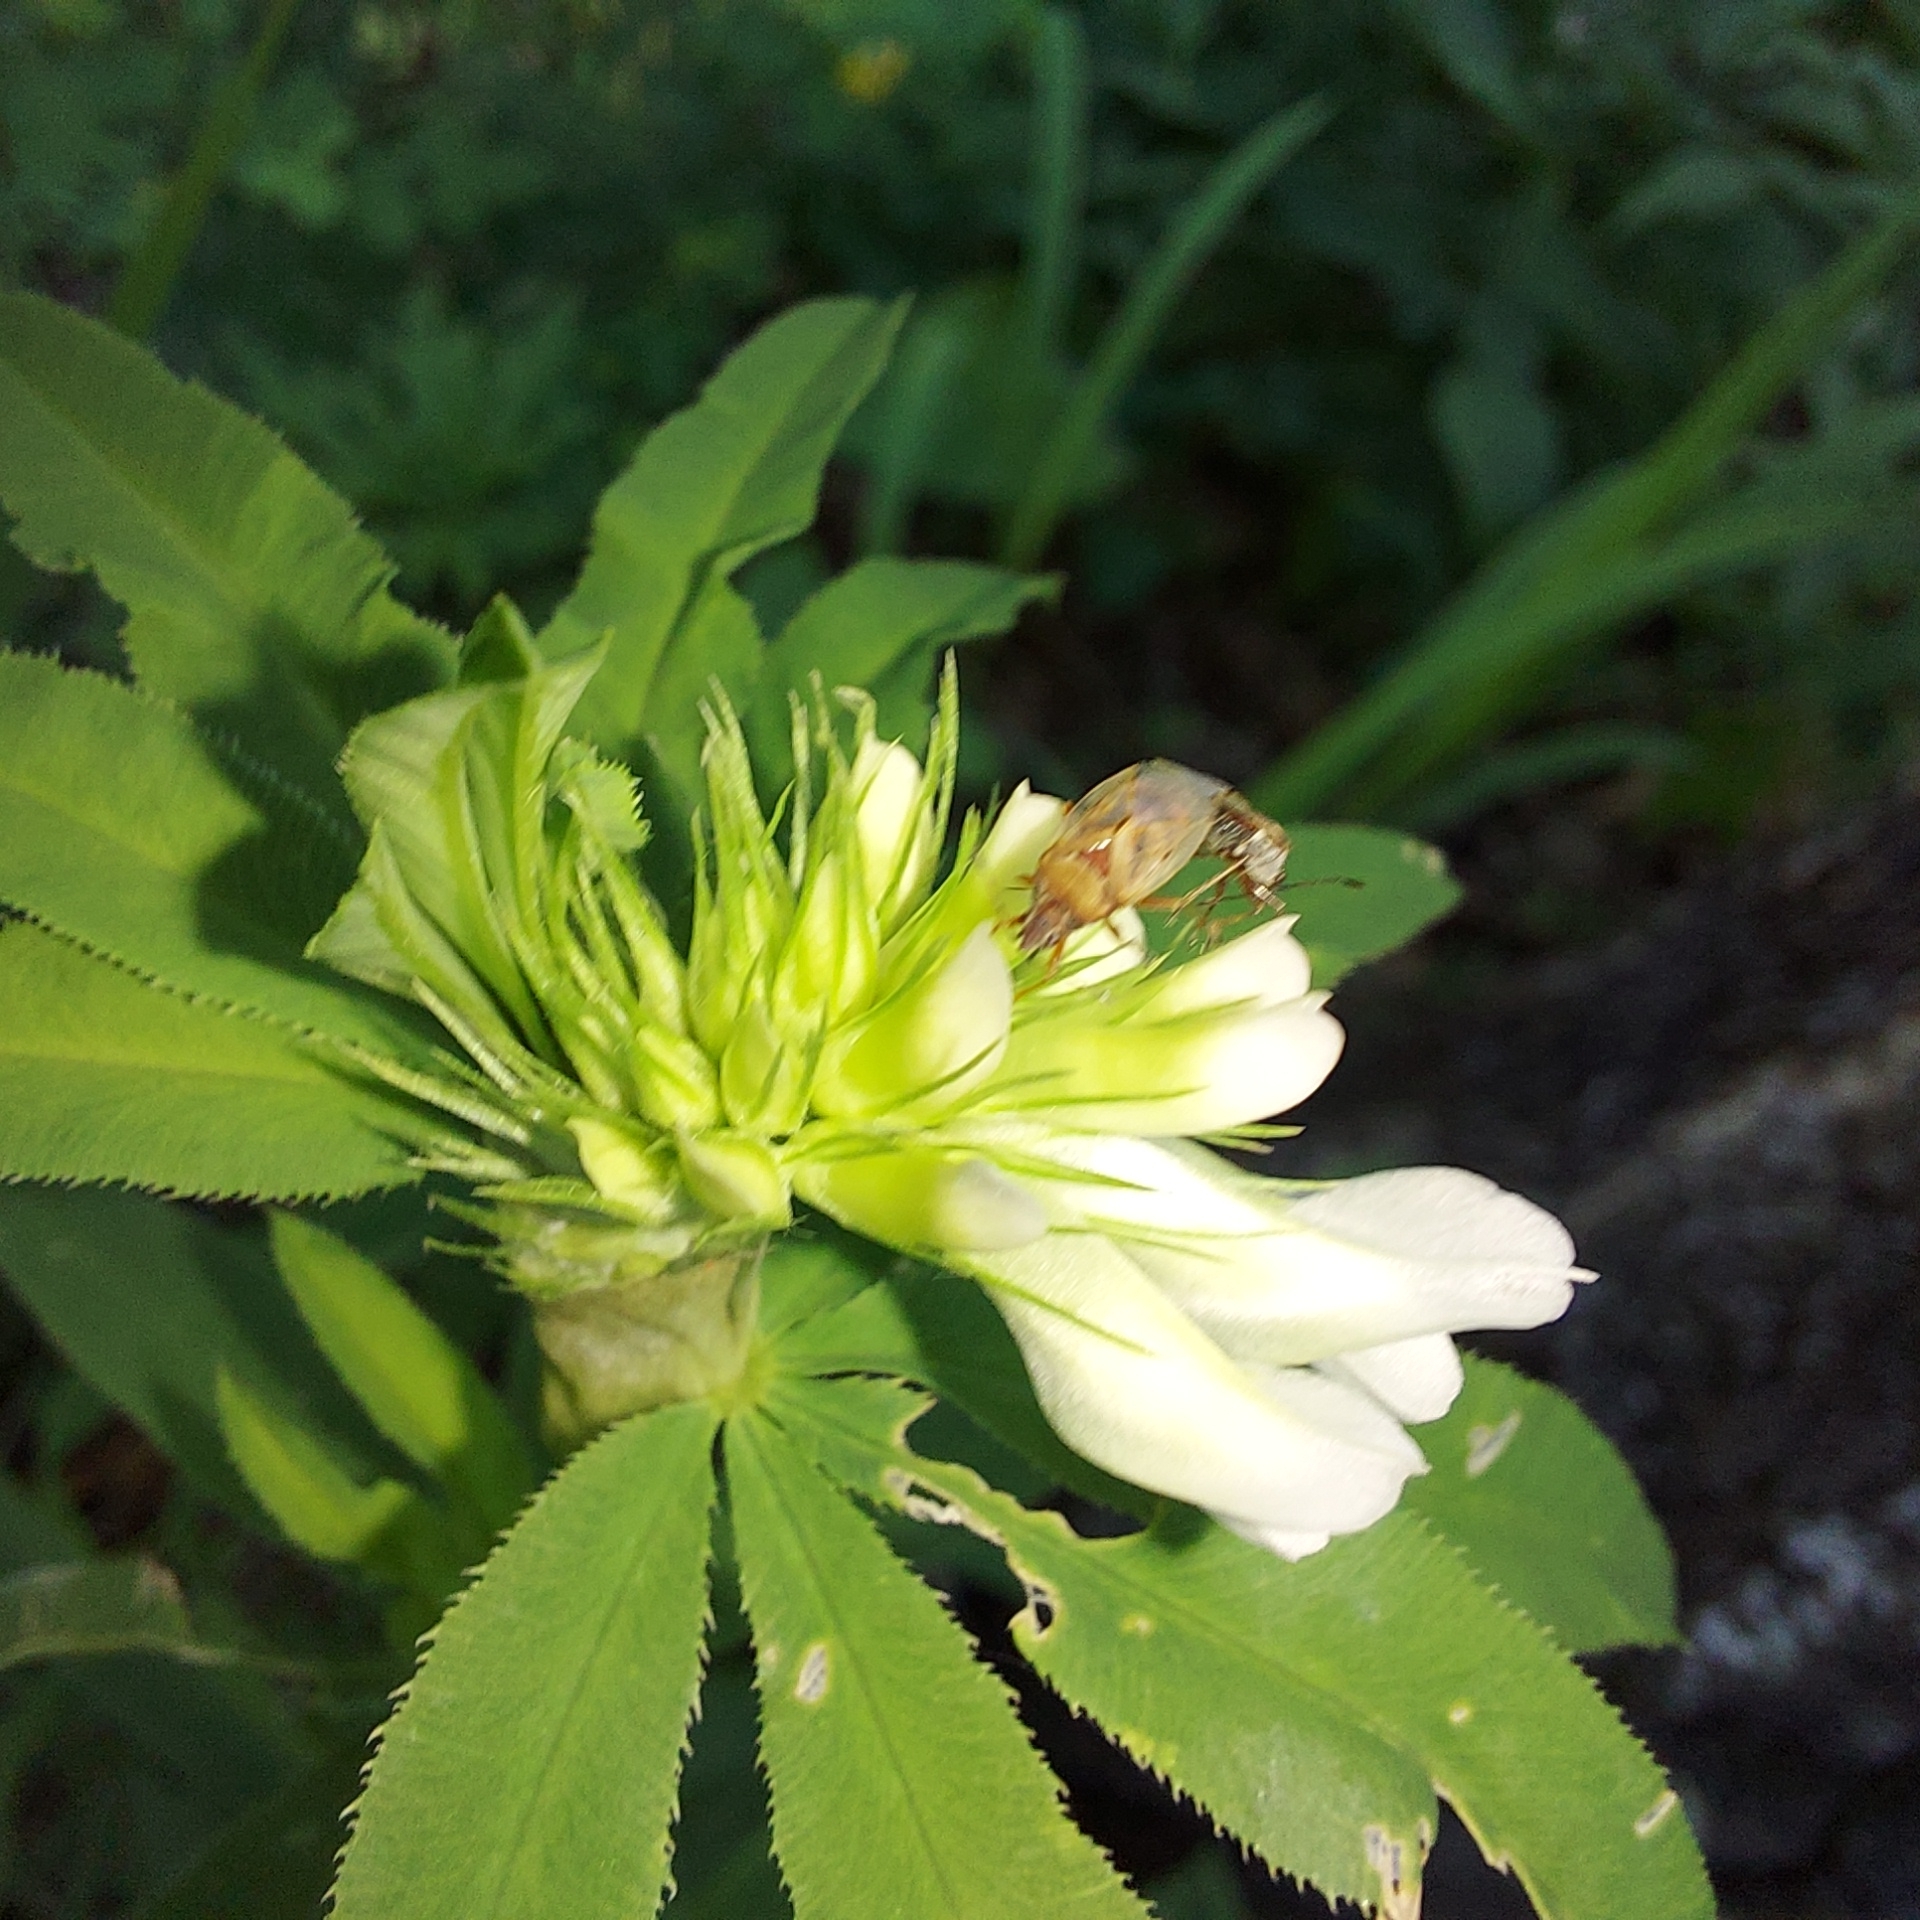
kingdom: Plantae
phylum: Tracheophyta
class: Magnoliopsida
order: Fabales
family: Fabaceae
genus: Trifolium
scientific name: Trifolium lupinaster
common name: Lupine clover
